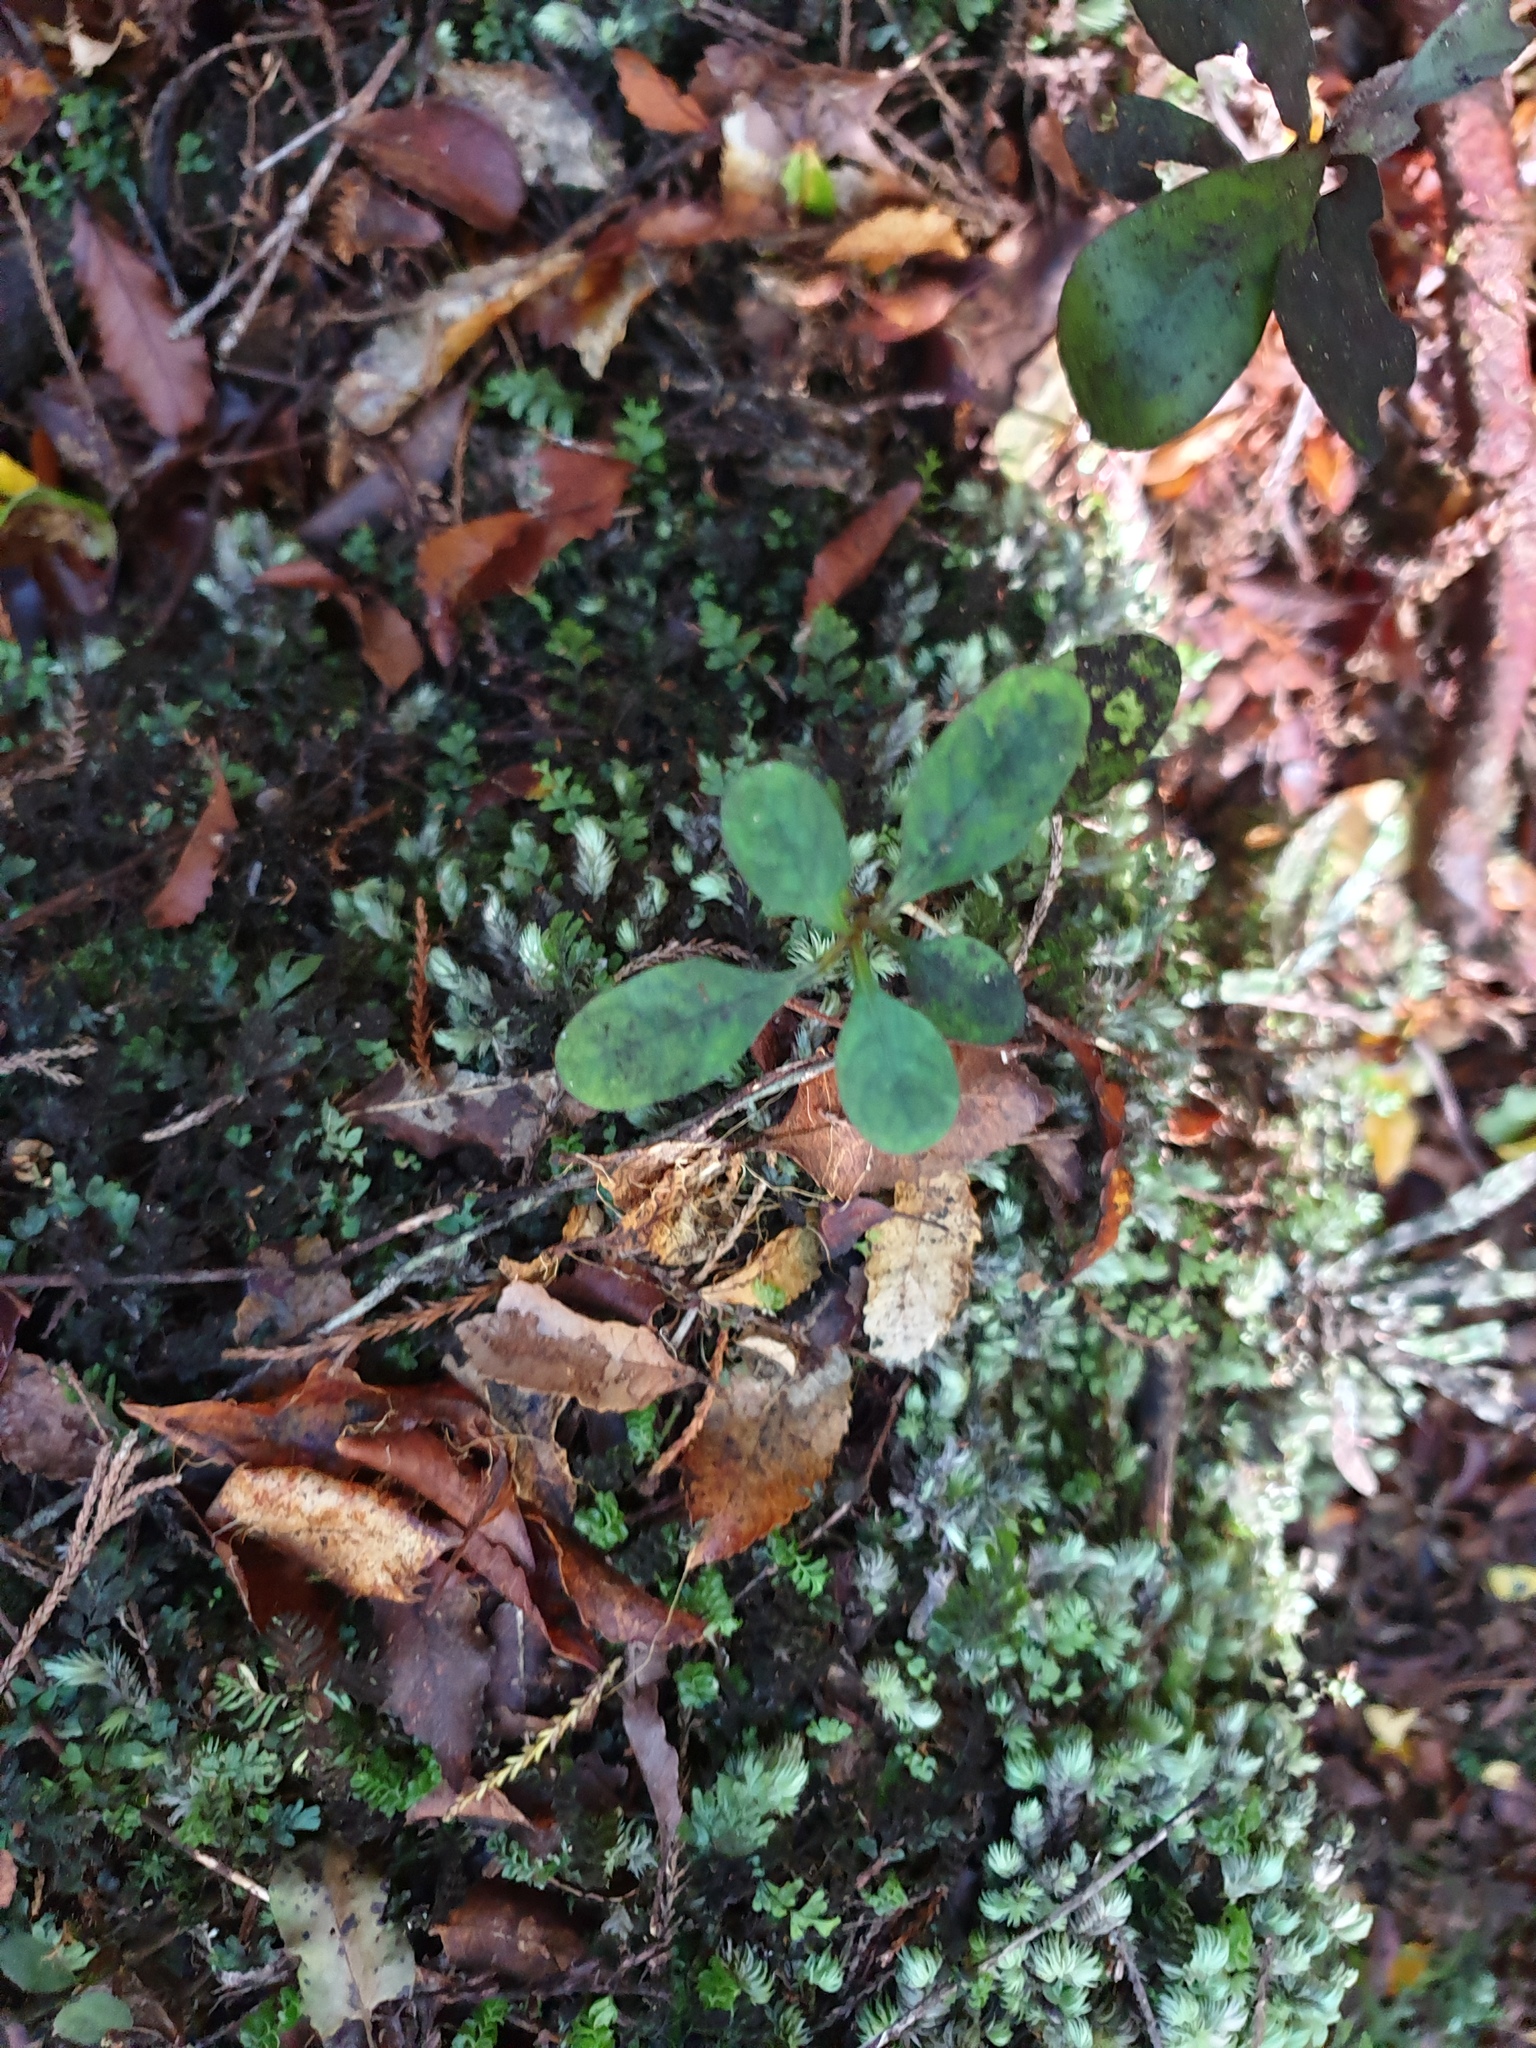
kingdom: Plantae
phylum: Tracheophyta
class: Magnoliopsida
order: Gentianales
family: Rubiaceae
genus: Coprosma
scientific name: Coprosma foetidissima
